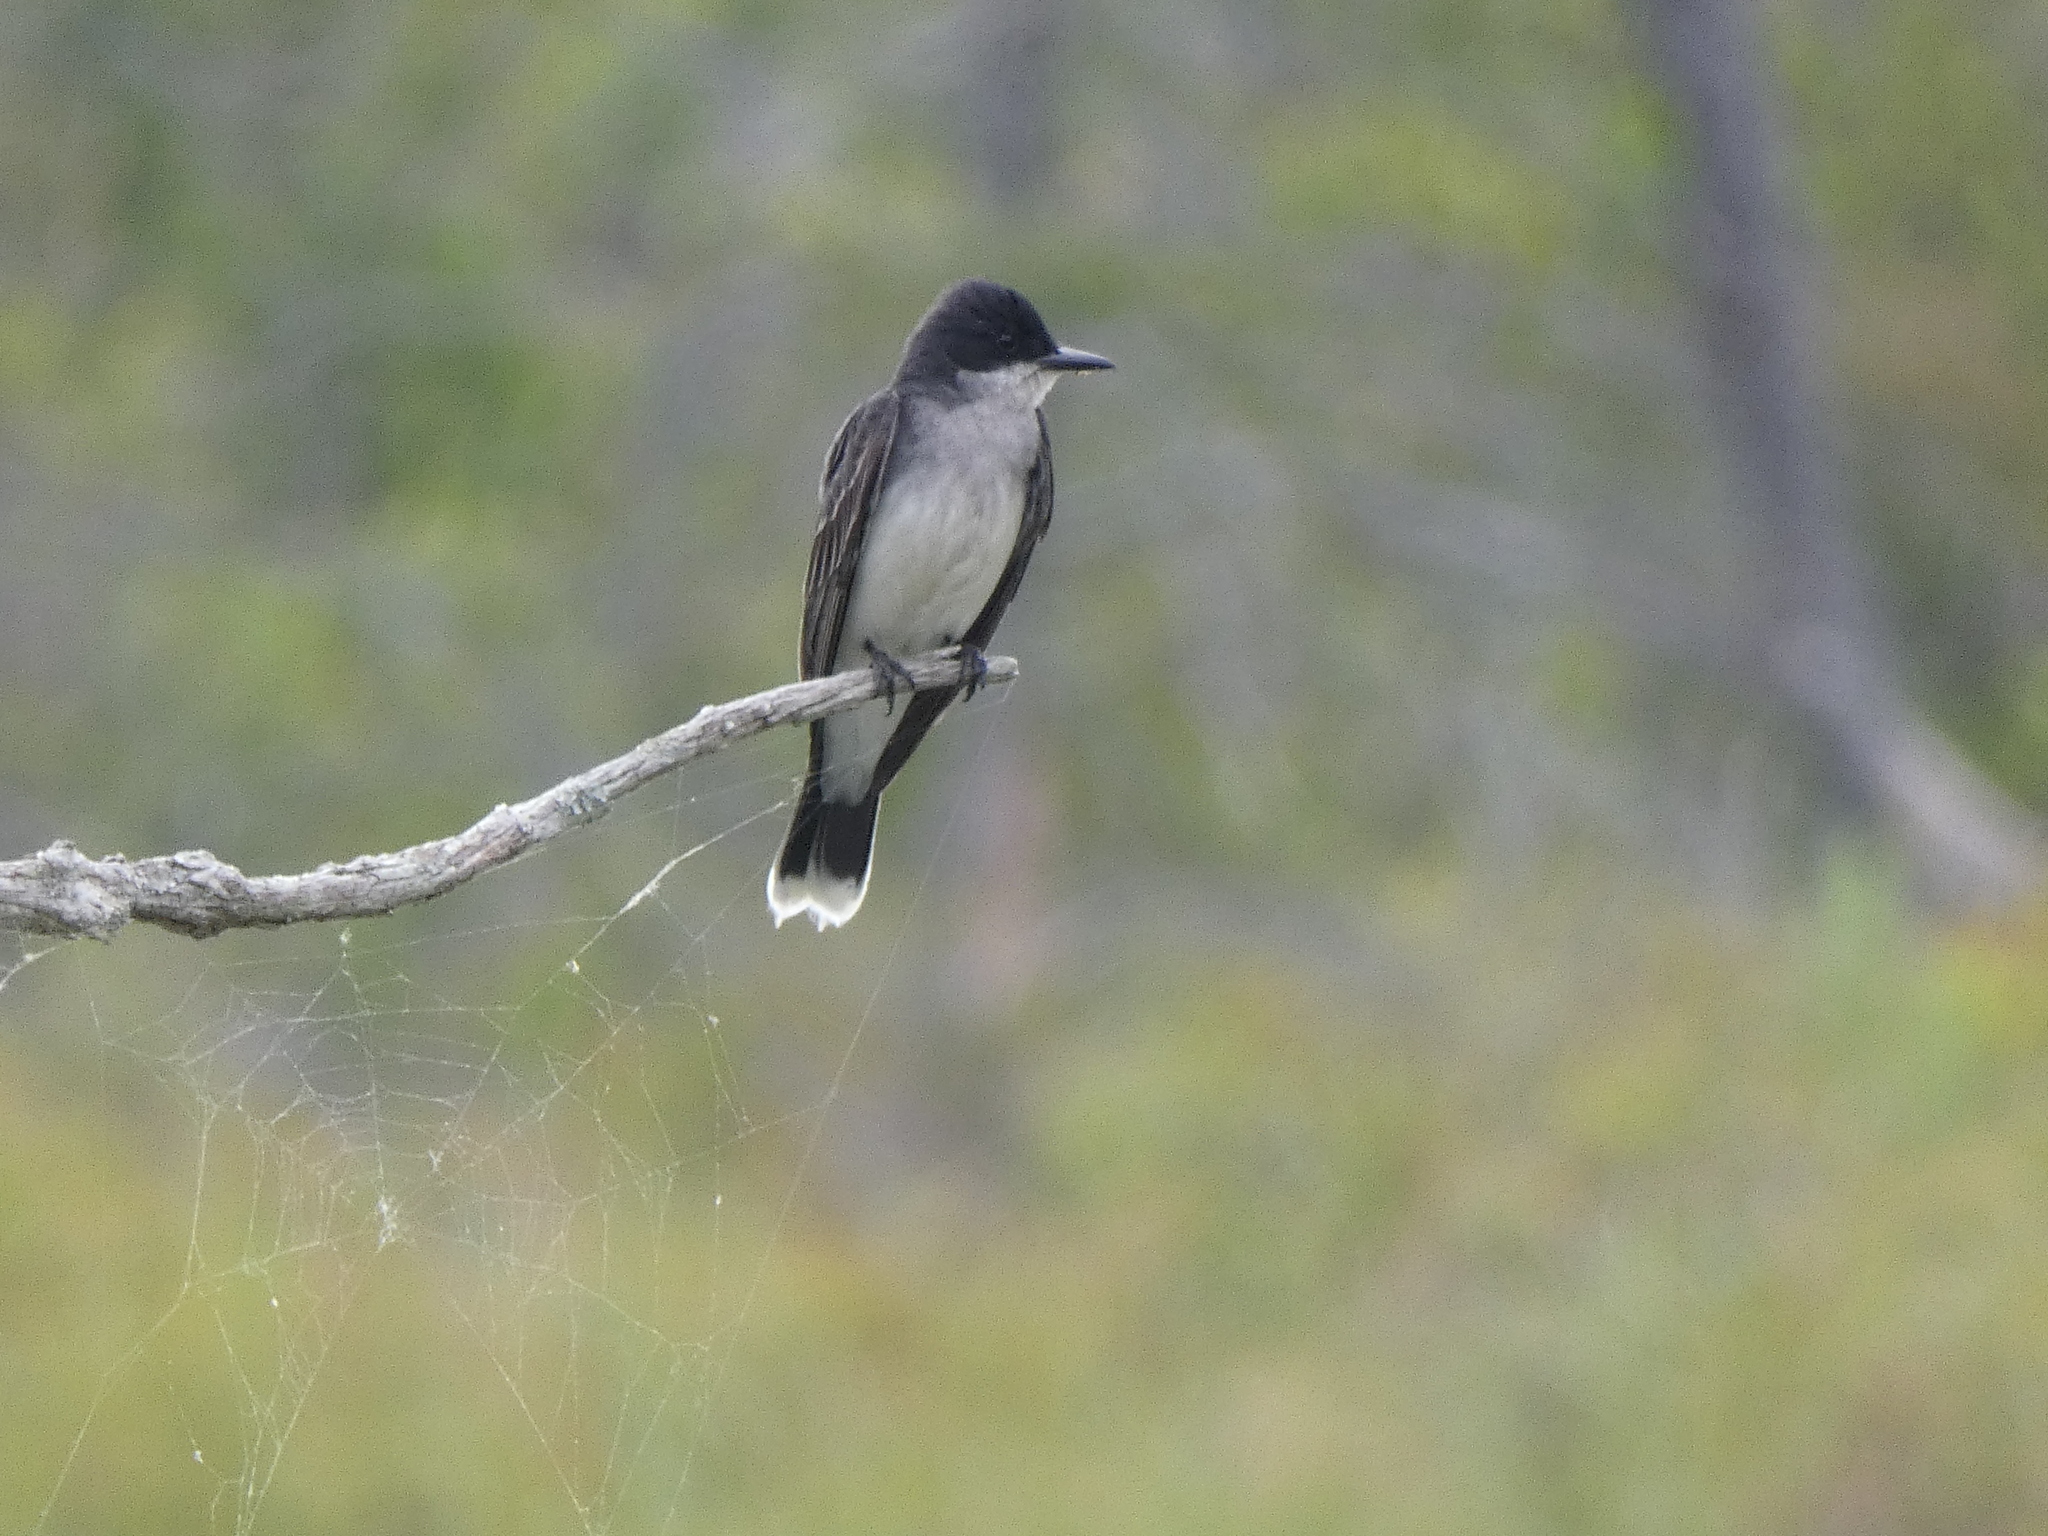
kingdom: Animalia
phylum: Chordata
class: Aves
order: Passeriformes
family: Tyrannidae
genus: Tyrannus
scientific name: Tyrannus tyrannus
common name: Eastern kingbird
